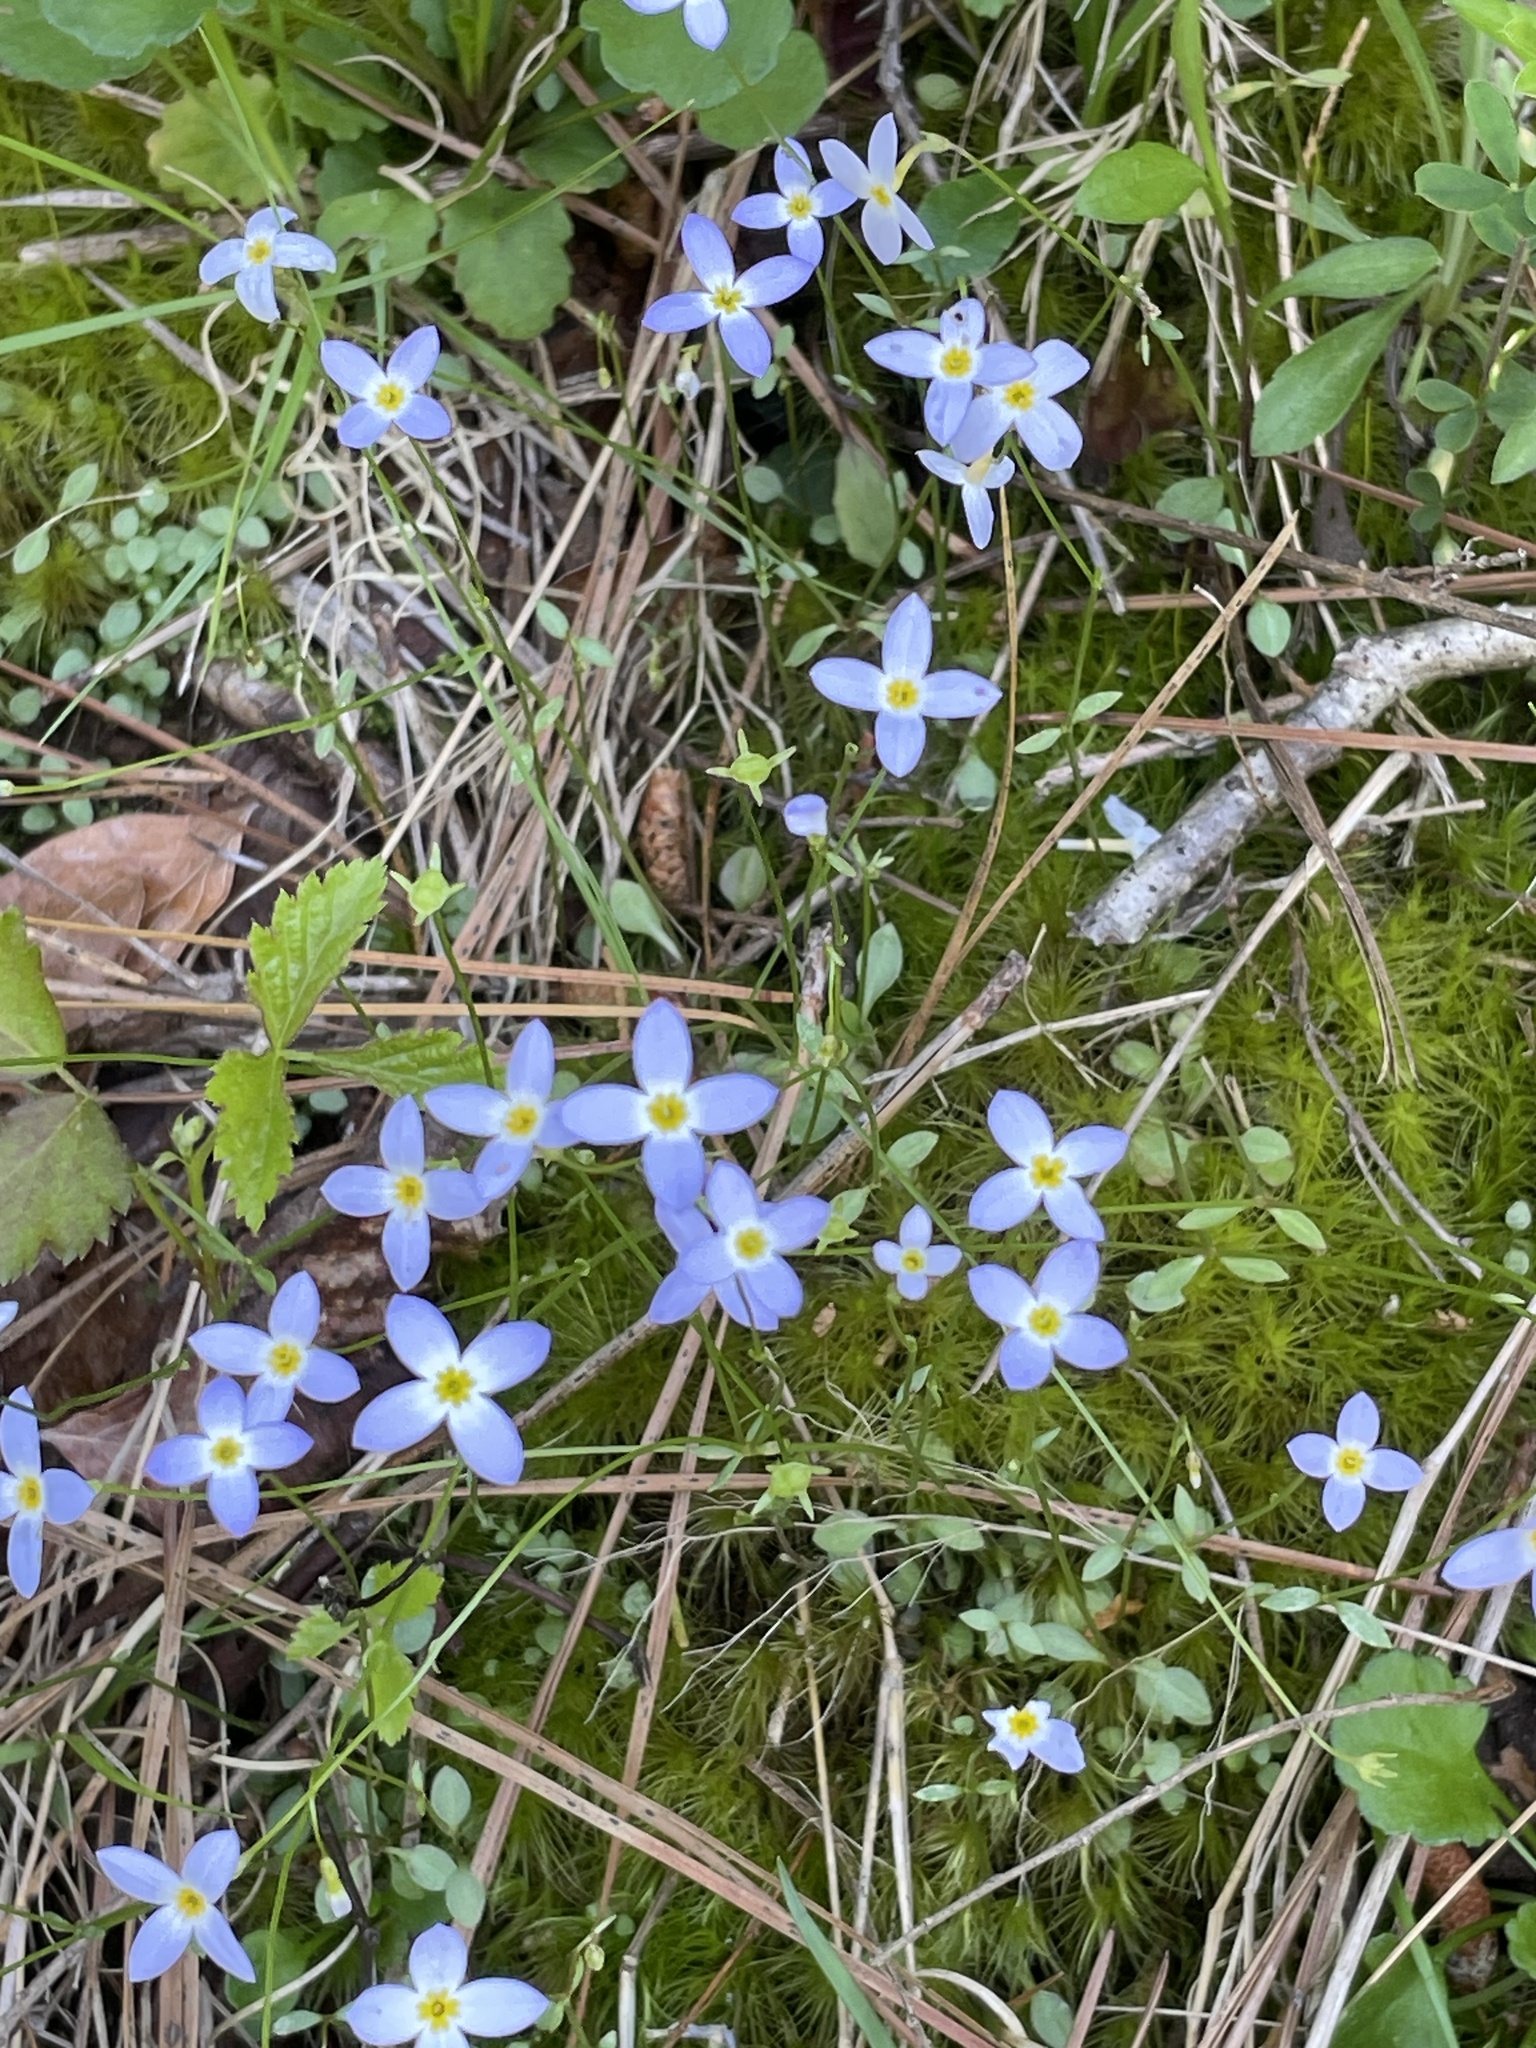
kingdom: Plantae
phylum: Tracheophyta
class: Magnoliopsida
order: Gentianales
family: Rubiaceae
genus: Houstonia
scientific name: Houstonia caerulea
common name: Bluets
